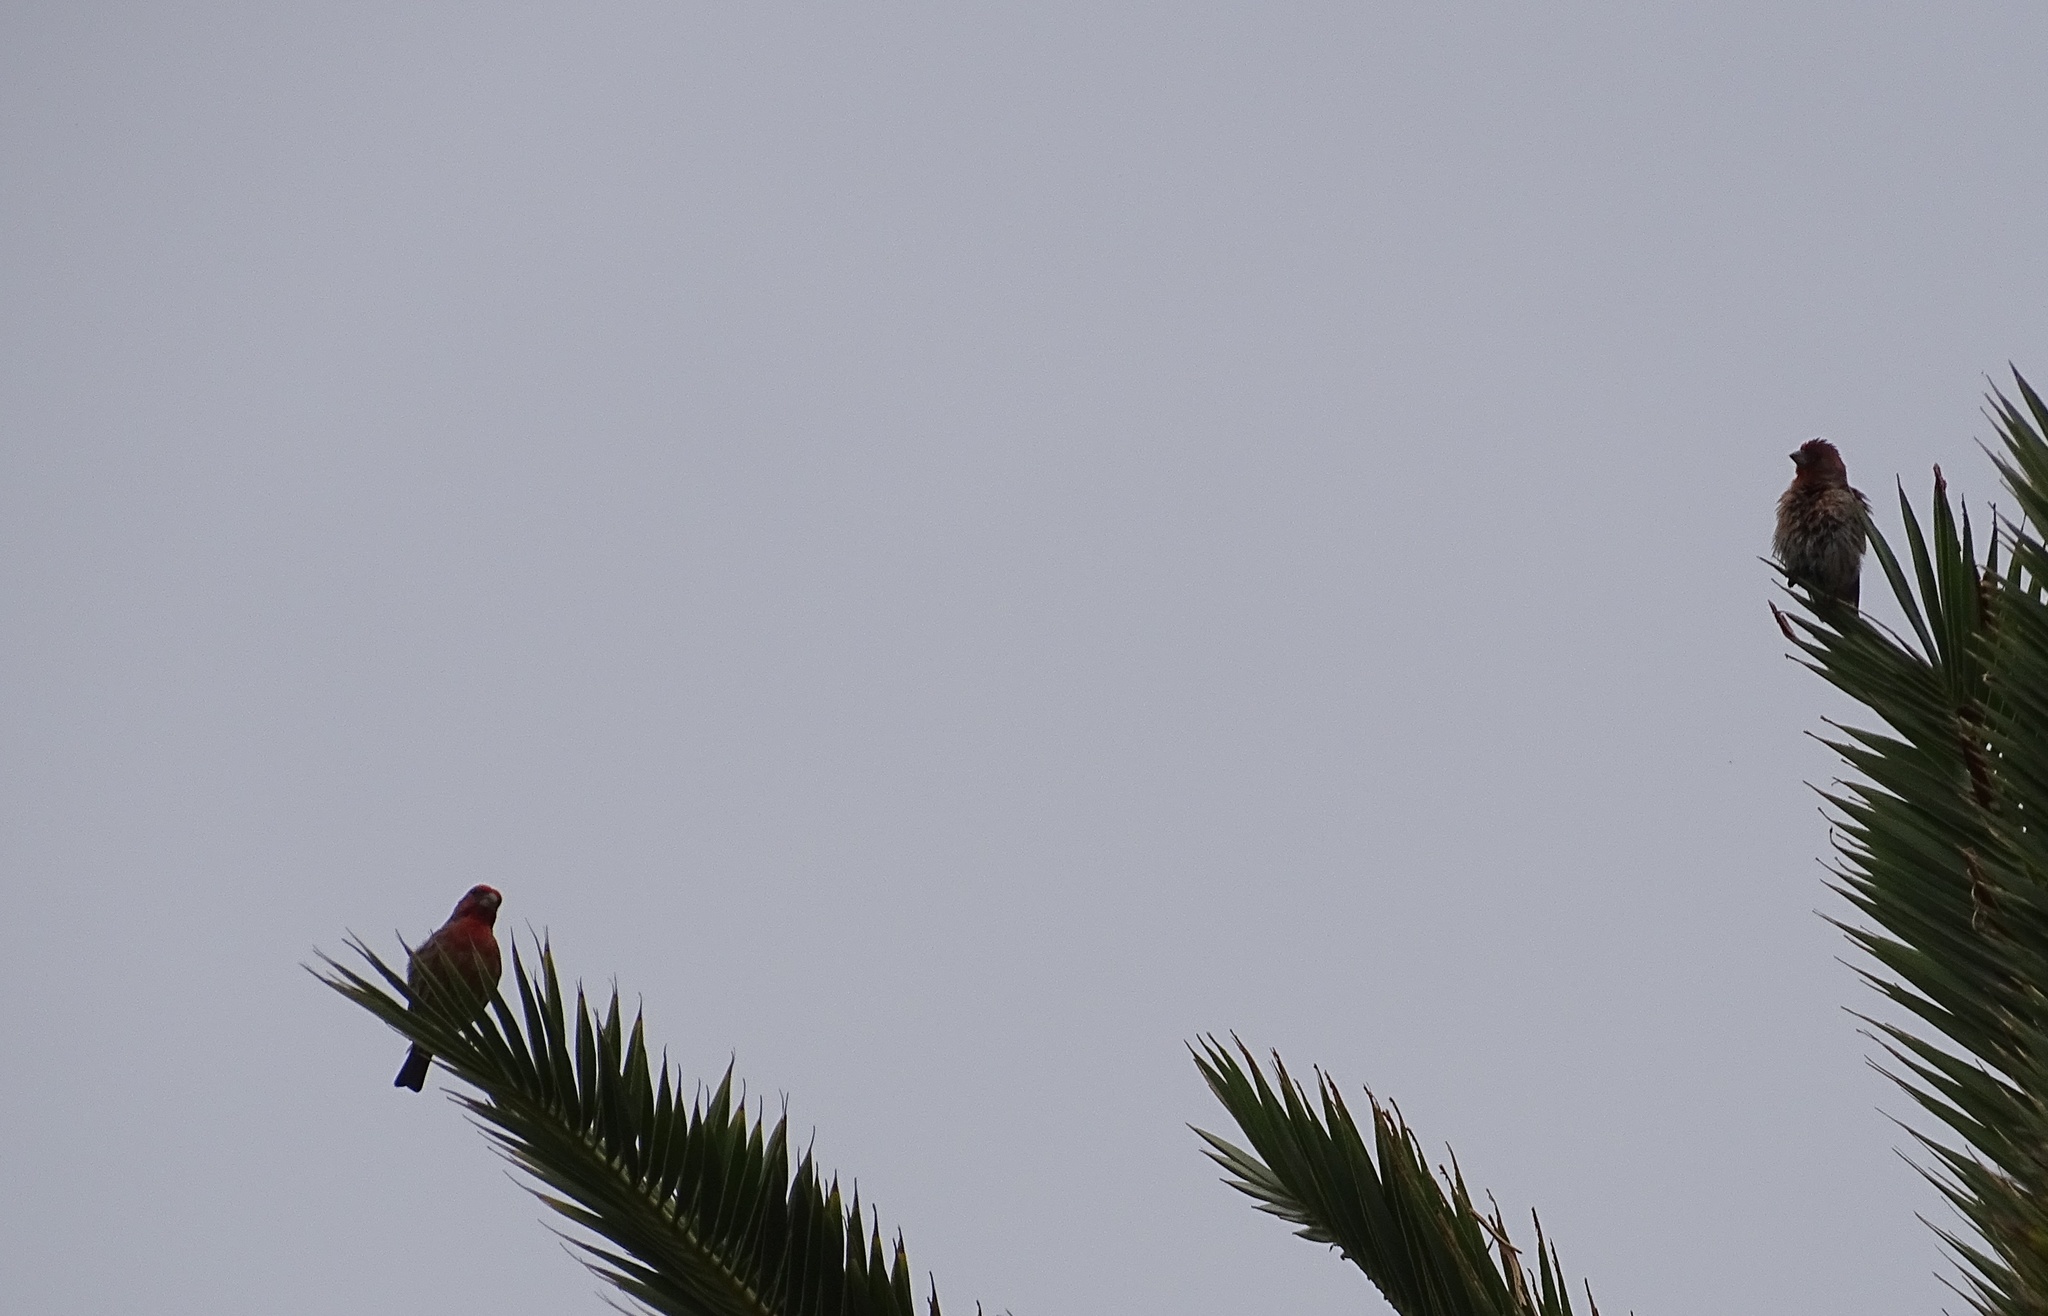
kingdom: Animalia
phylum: Chordata
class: Aves
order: Passeriformes
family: Fringillidae
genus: Haemorhous
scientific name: Haemorhous mexicanus
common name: House finch
